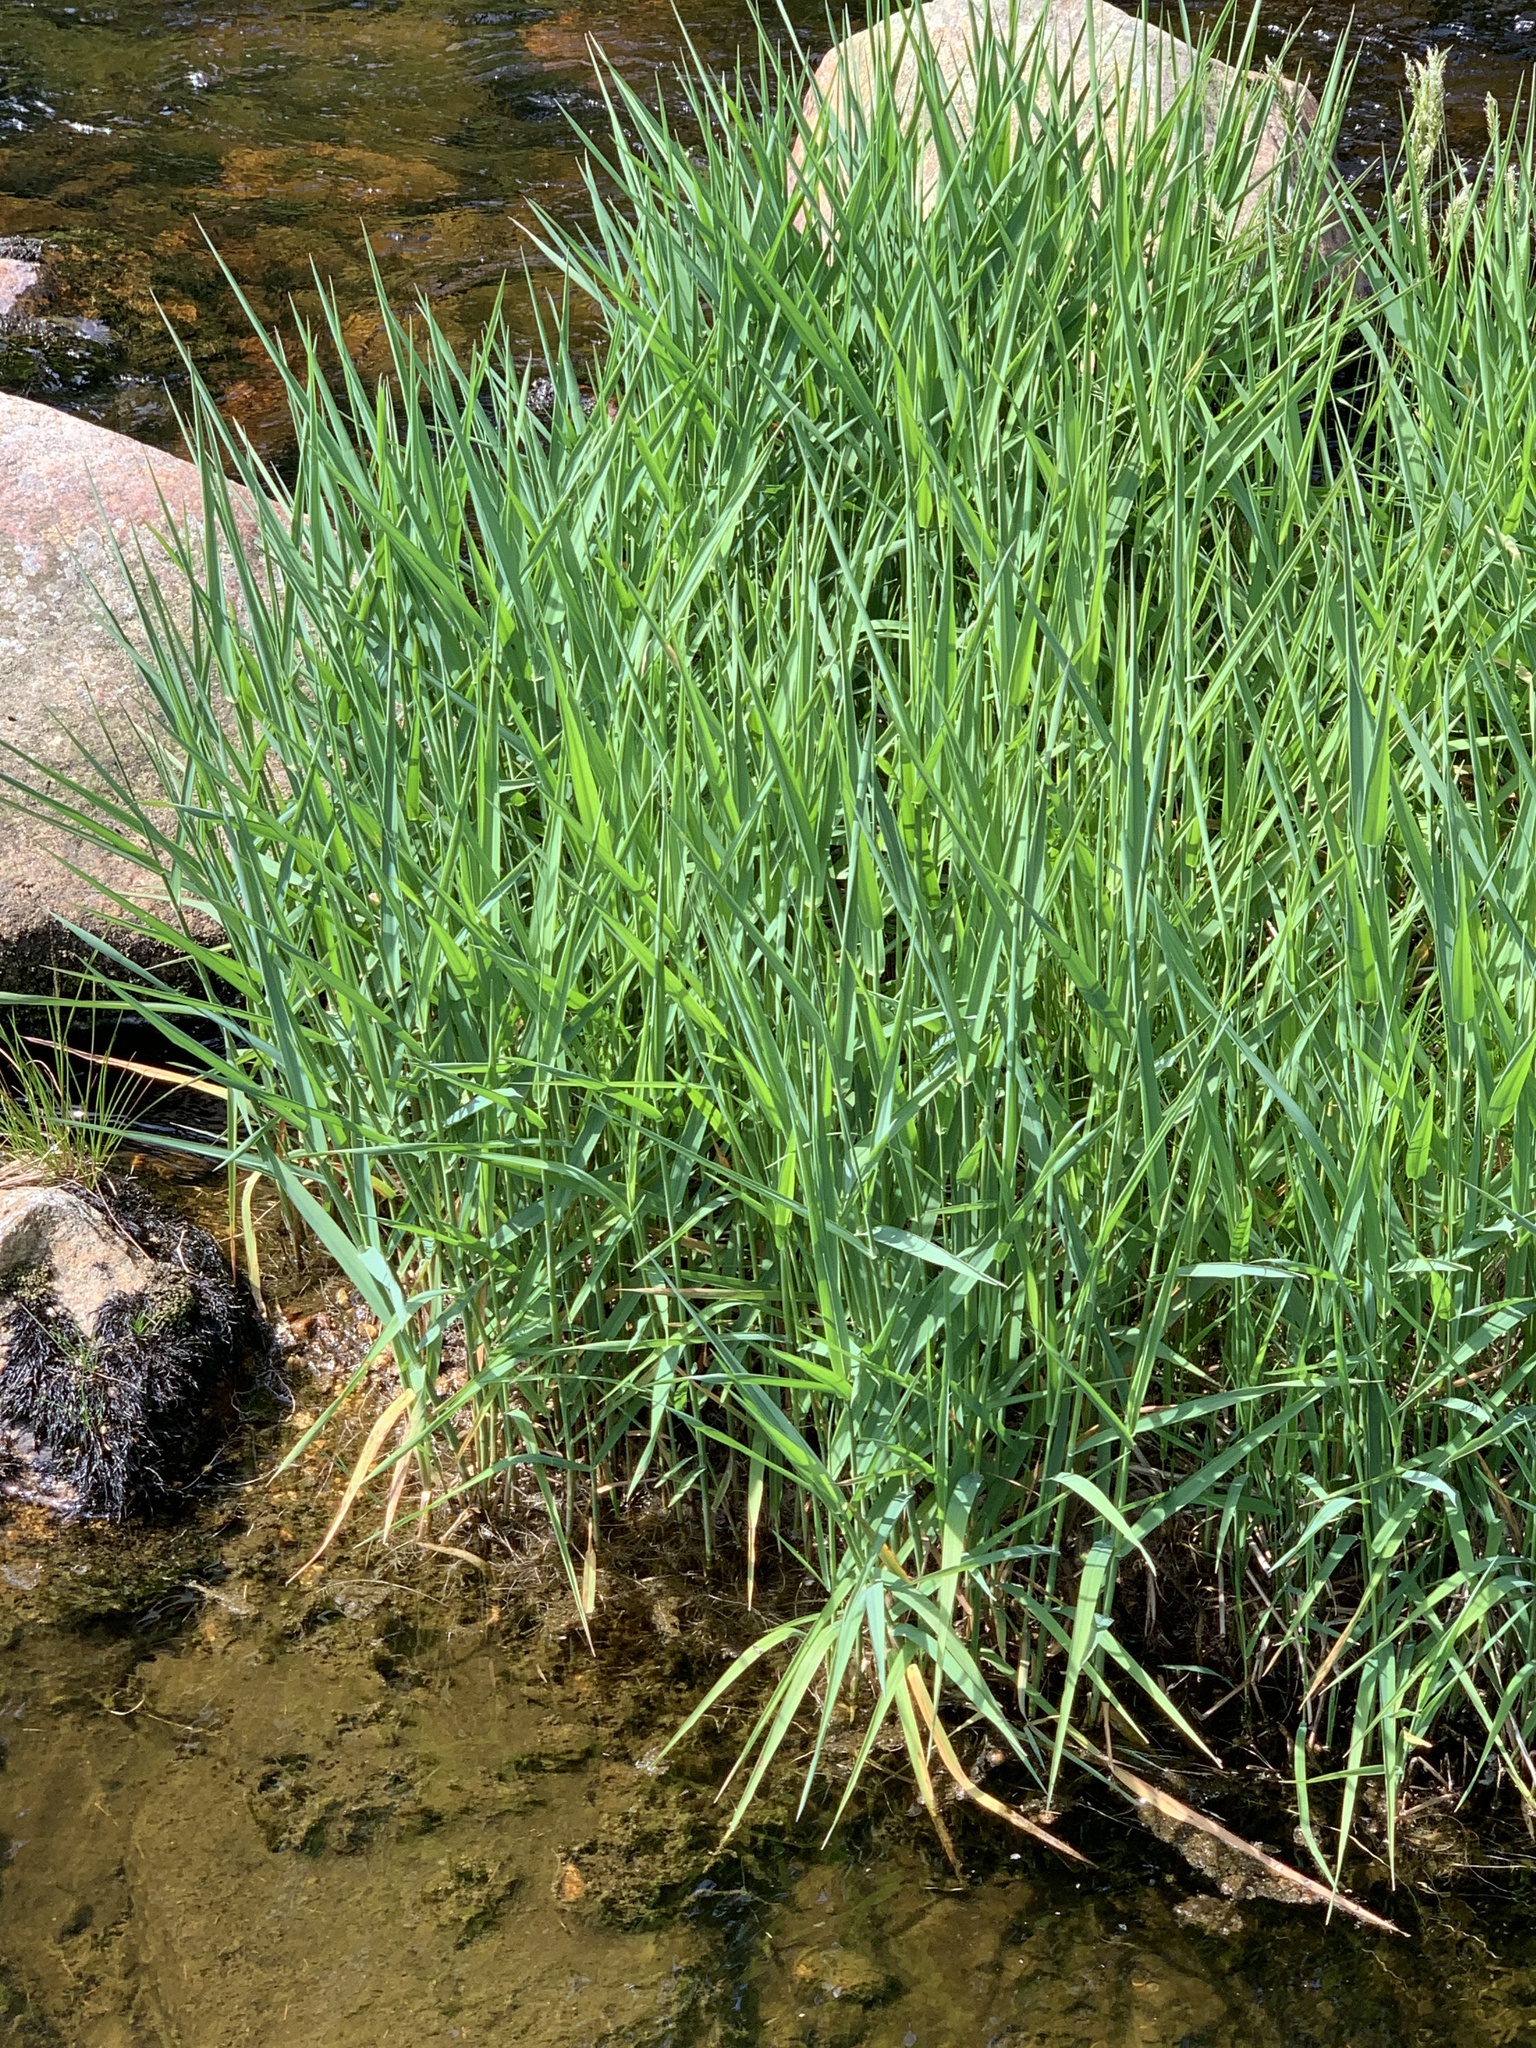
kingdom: Plantae
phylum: Tracheophyta
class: Liliopsida
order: Poales
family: Poaceae
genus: Anthoxanthum
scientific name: Anthoxanthum odoratum
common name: Sweet vernalgrass
